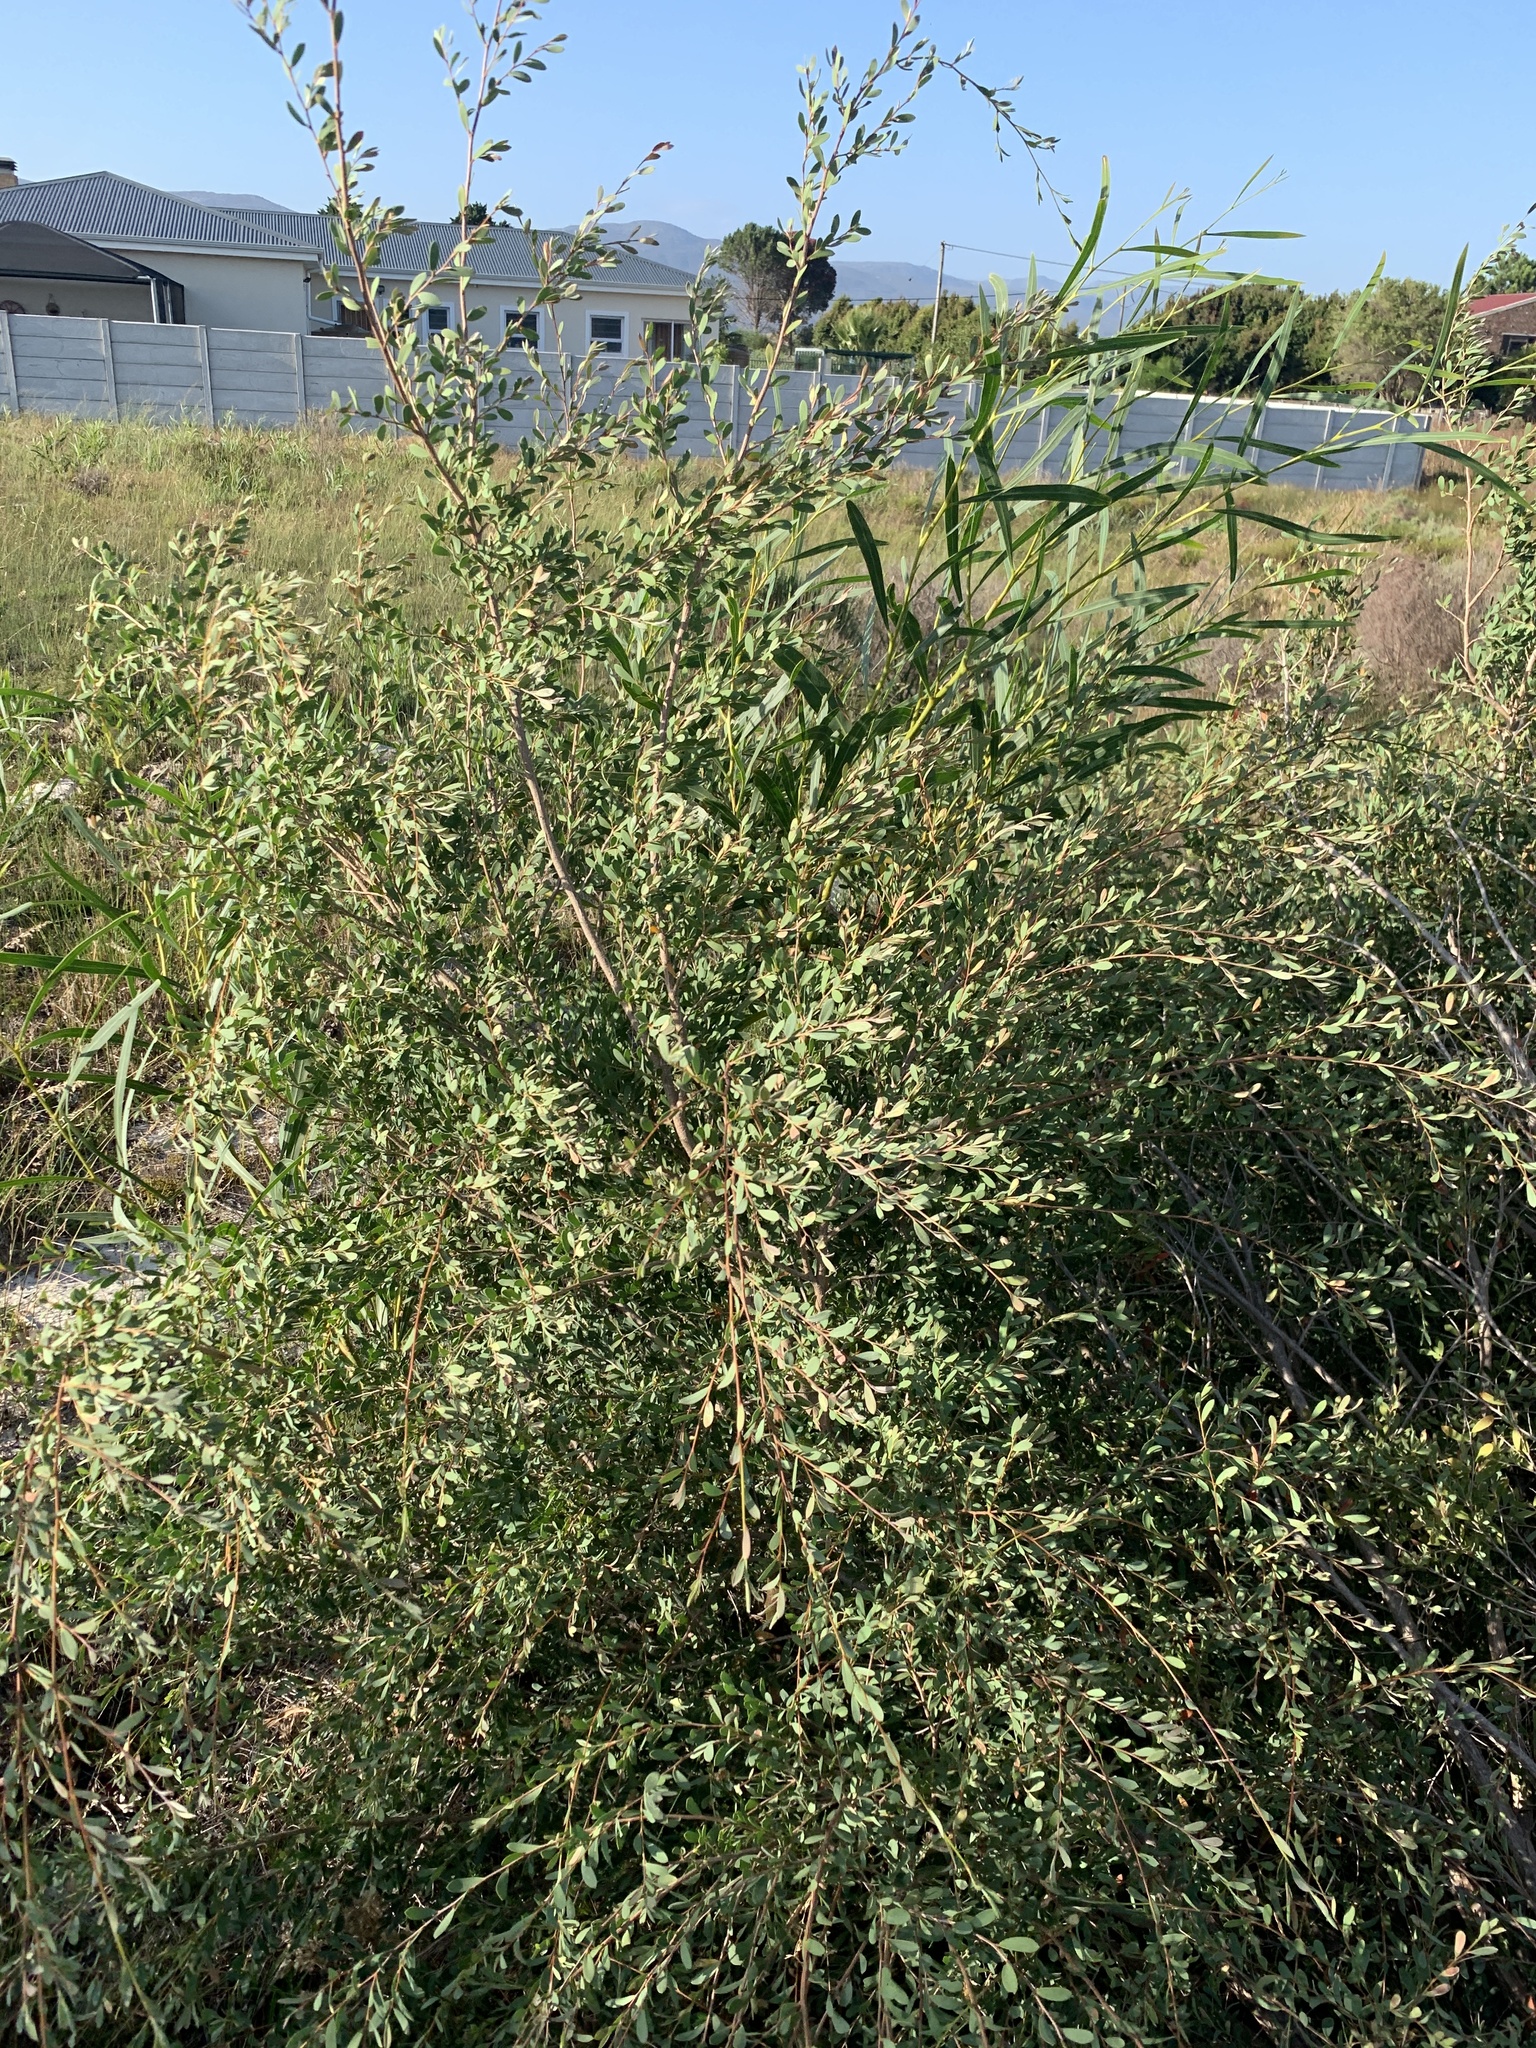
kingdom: Plantae
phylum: Tracheophyta
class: Magnoliopsida
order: Myrtales
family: Myrtaceae
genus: Leptospermum
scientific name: Leptospermum laevigatum
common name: Australian teatree
